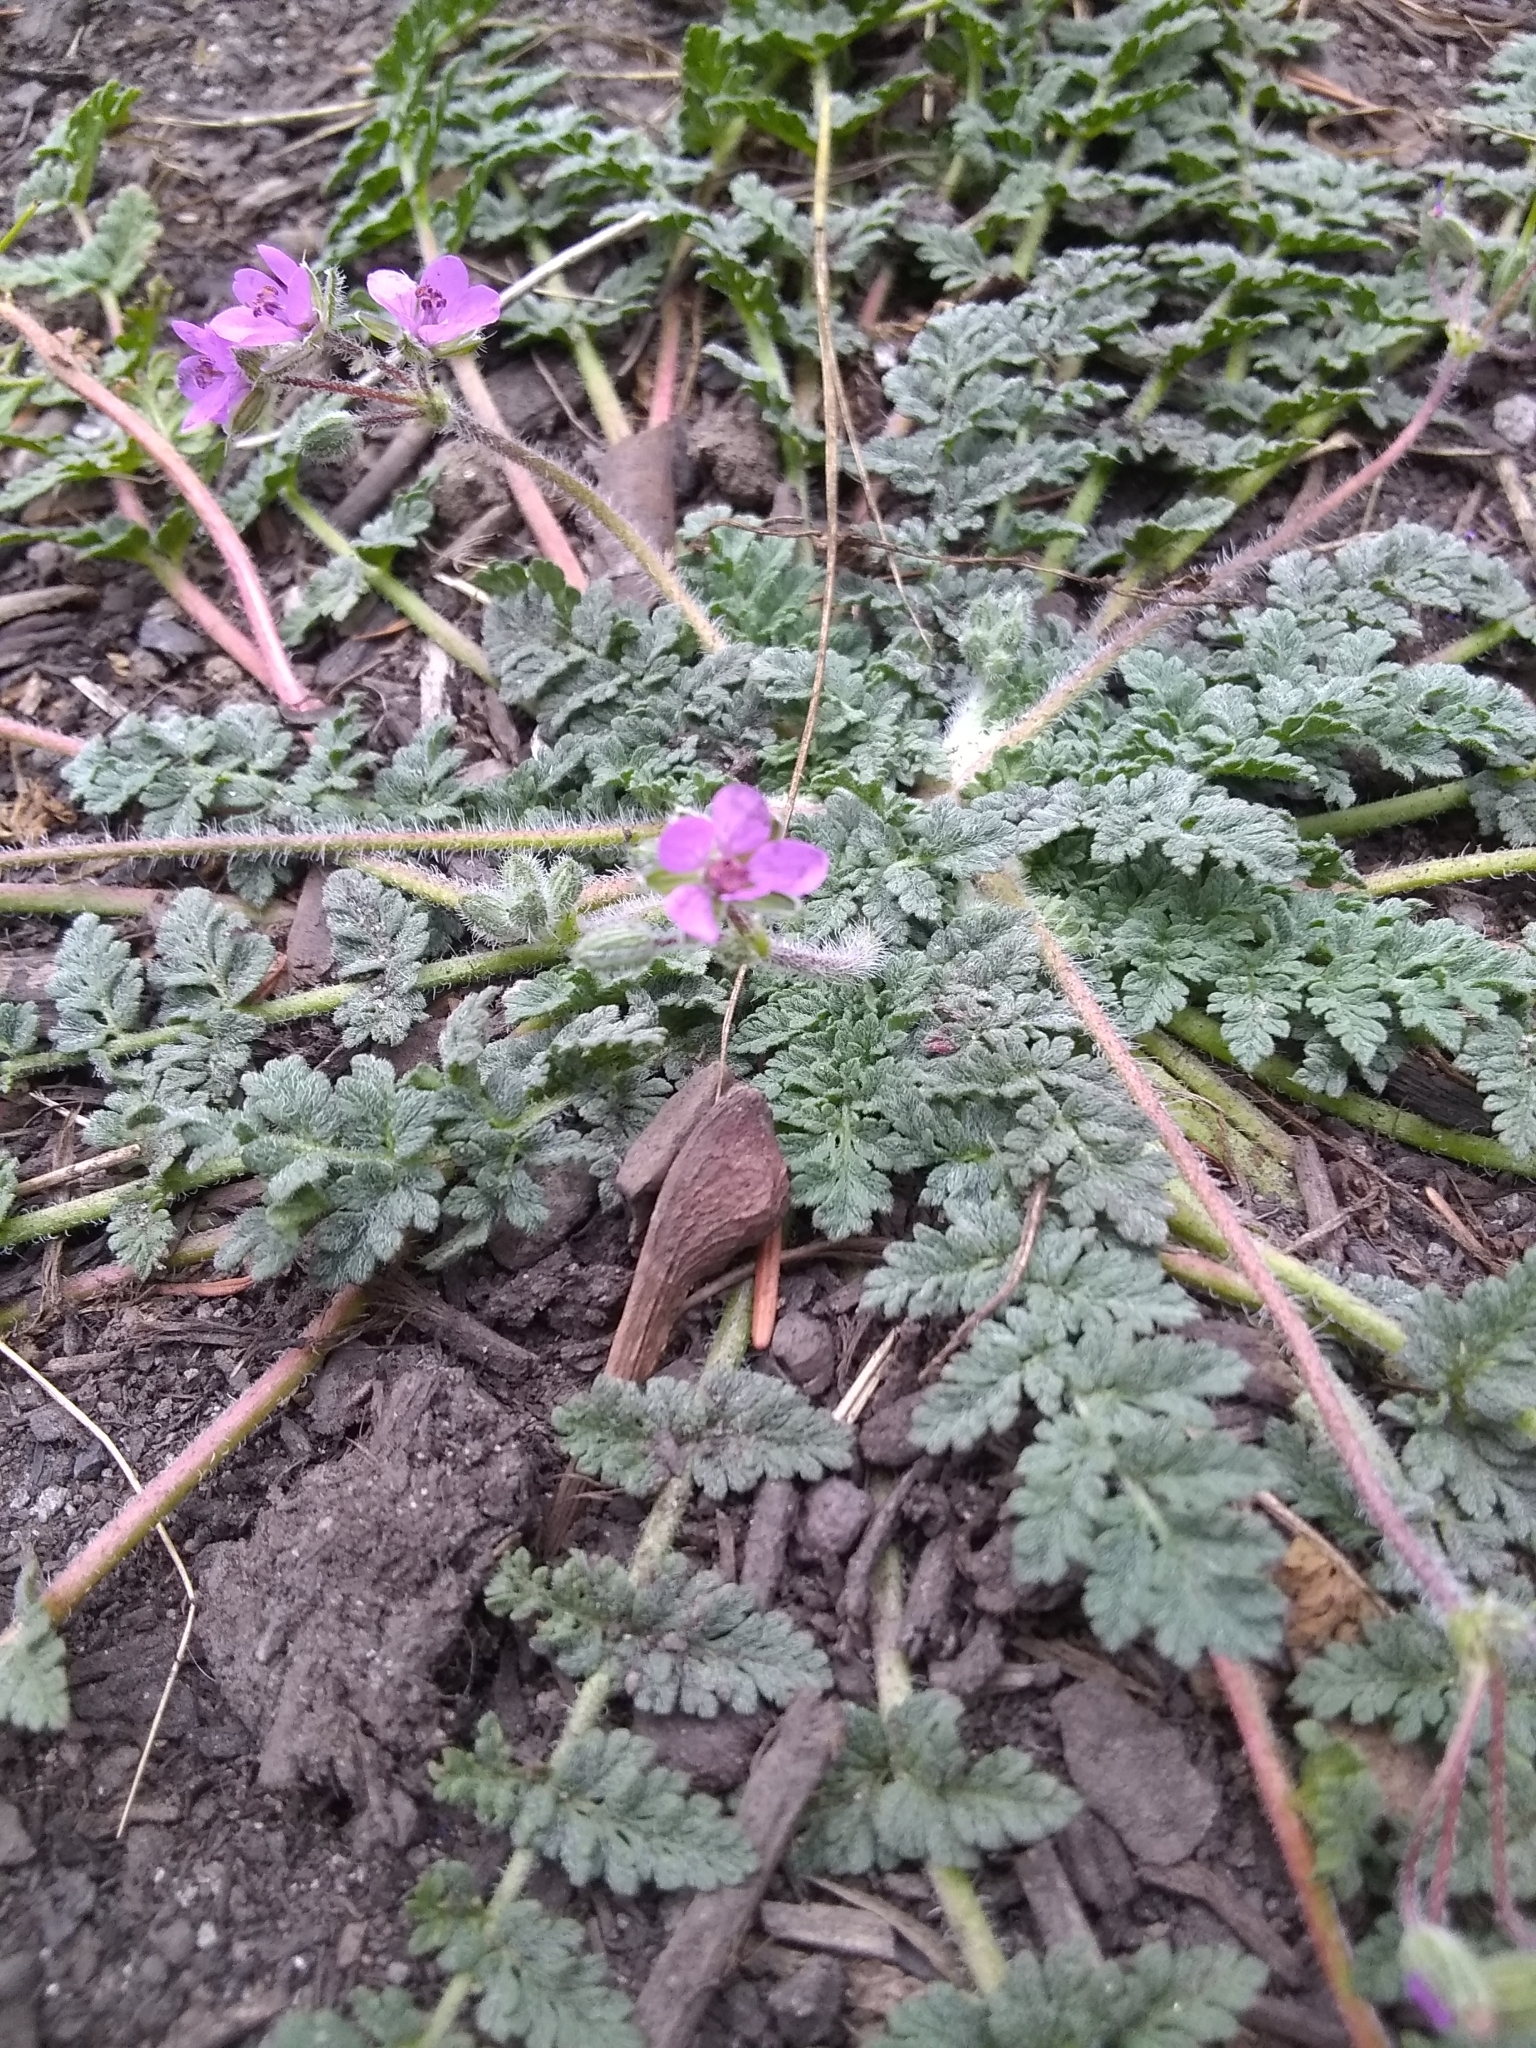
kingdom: Plantae
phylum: Tracheophyta
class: Magnoliopsida
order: Geraniales
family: Geraniaceae
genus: Erodium
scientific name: Erodium cicutarium
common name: Common stork's-bill
